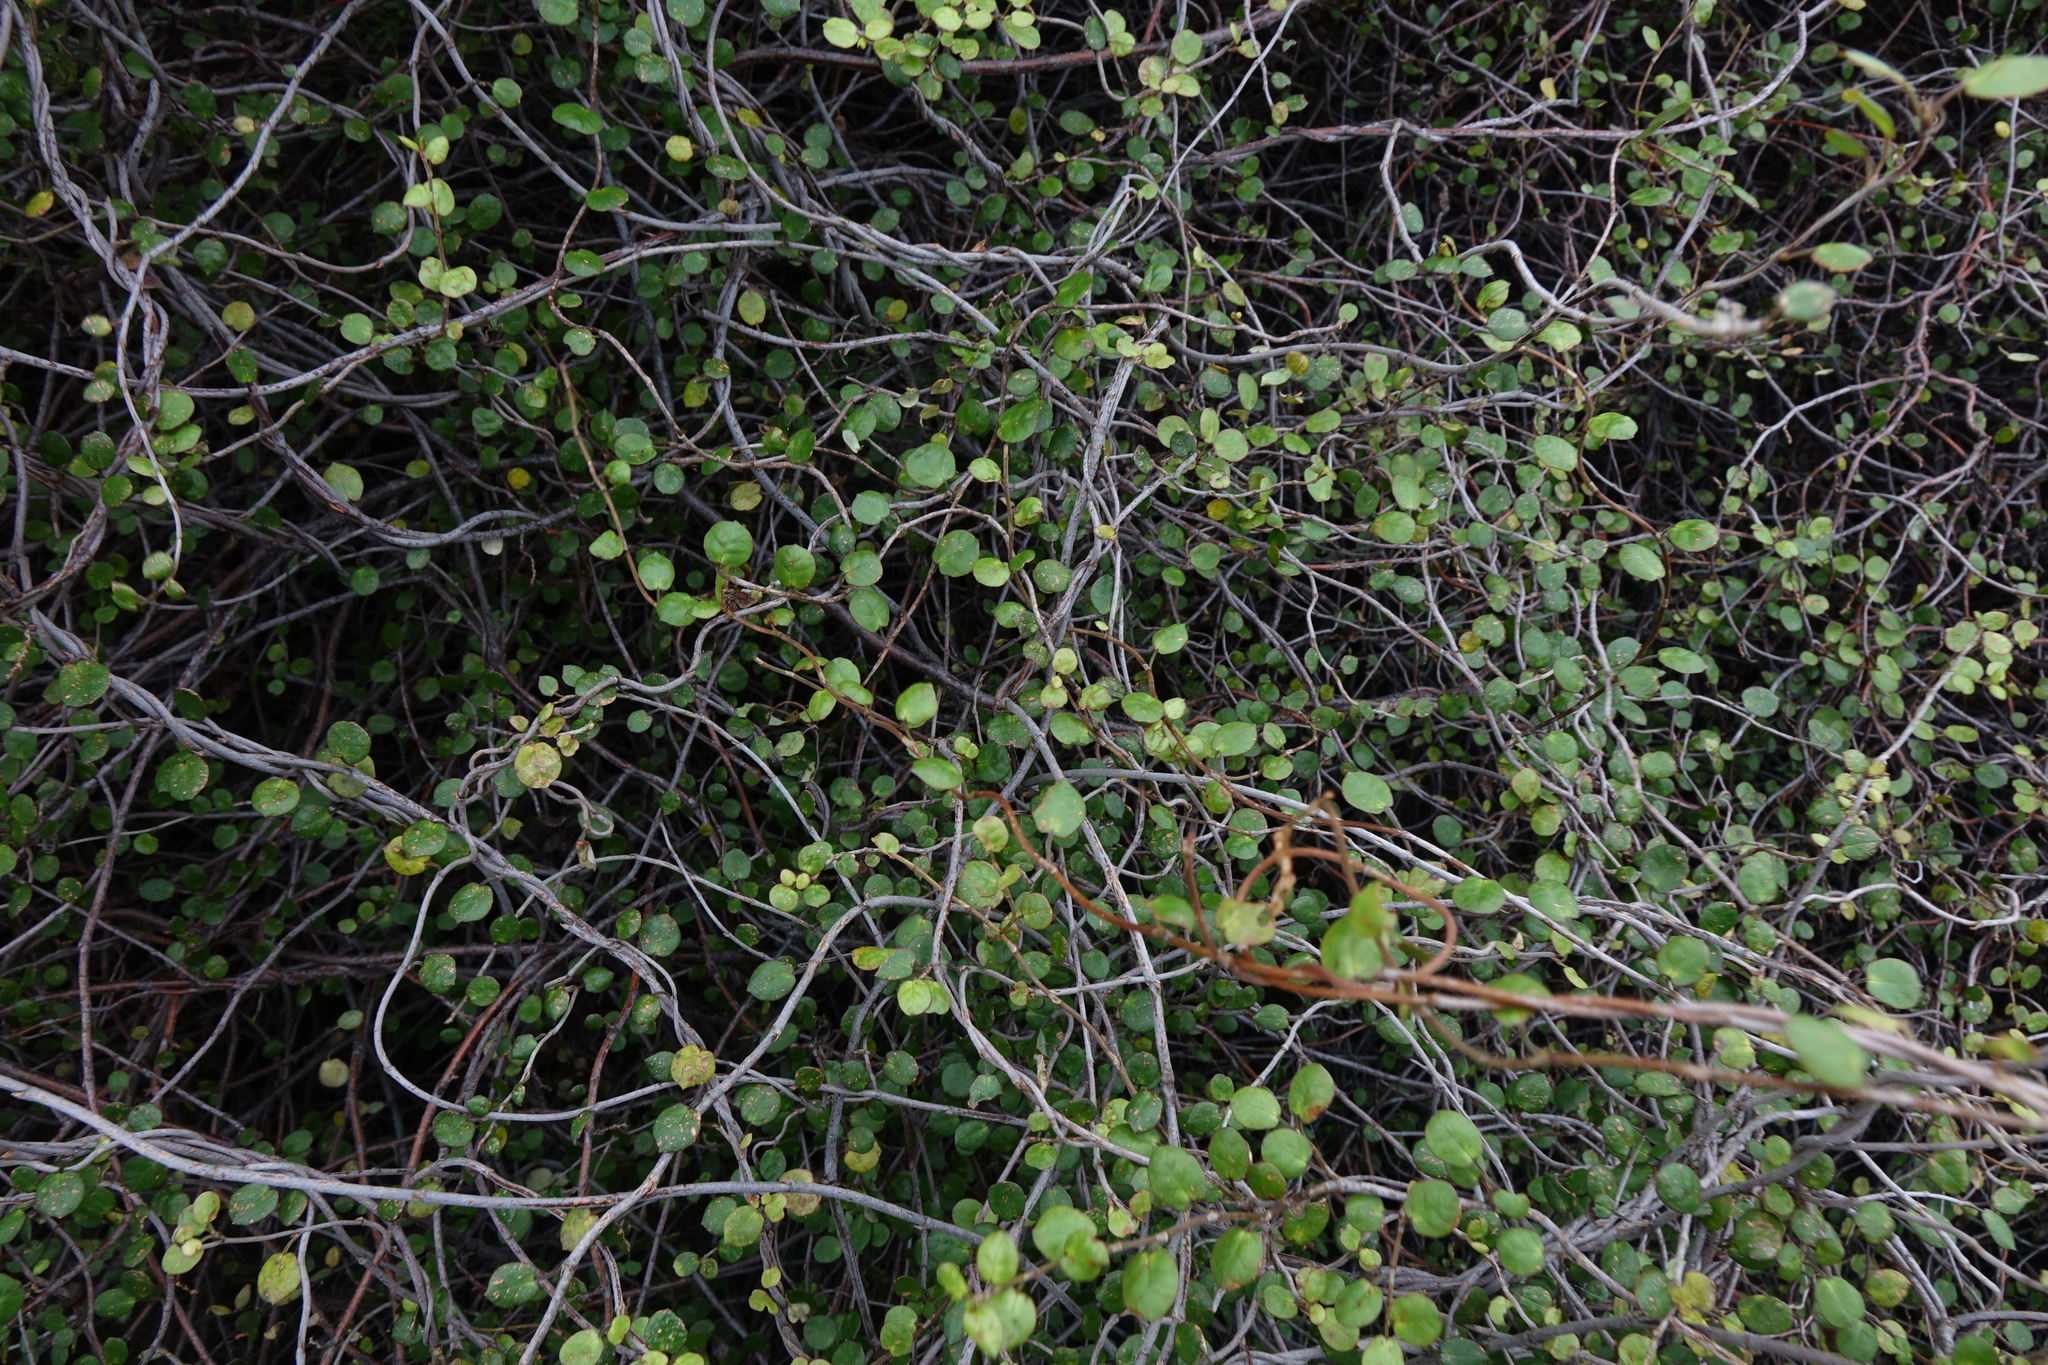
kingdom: Plantae
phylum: Tracheophyta
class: Magnoliopsida
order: Caryophyllales
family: Polygonaceae
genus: Muehlenbeckia
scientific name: Muehlenbeckia complexa
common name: Wireplant
